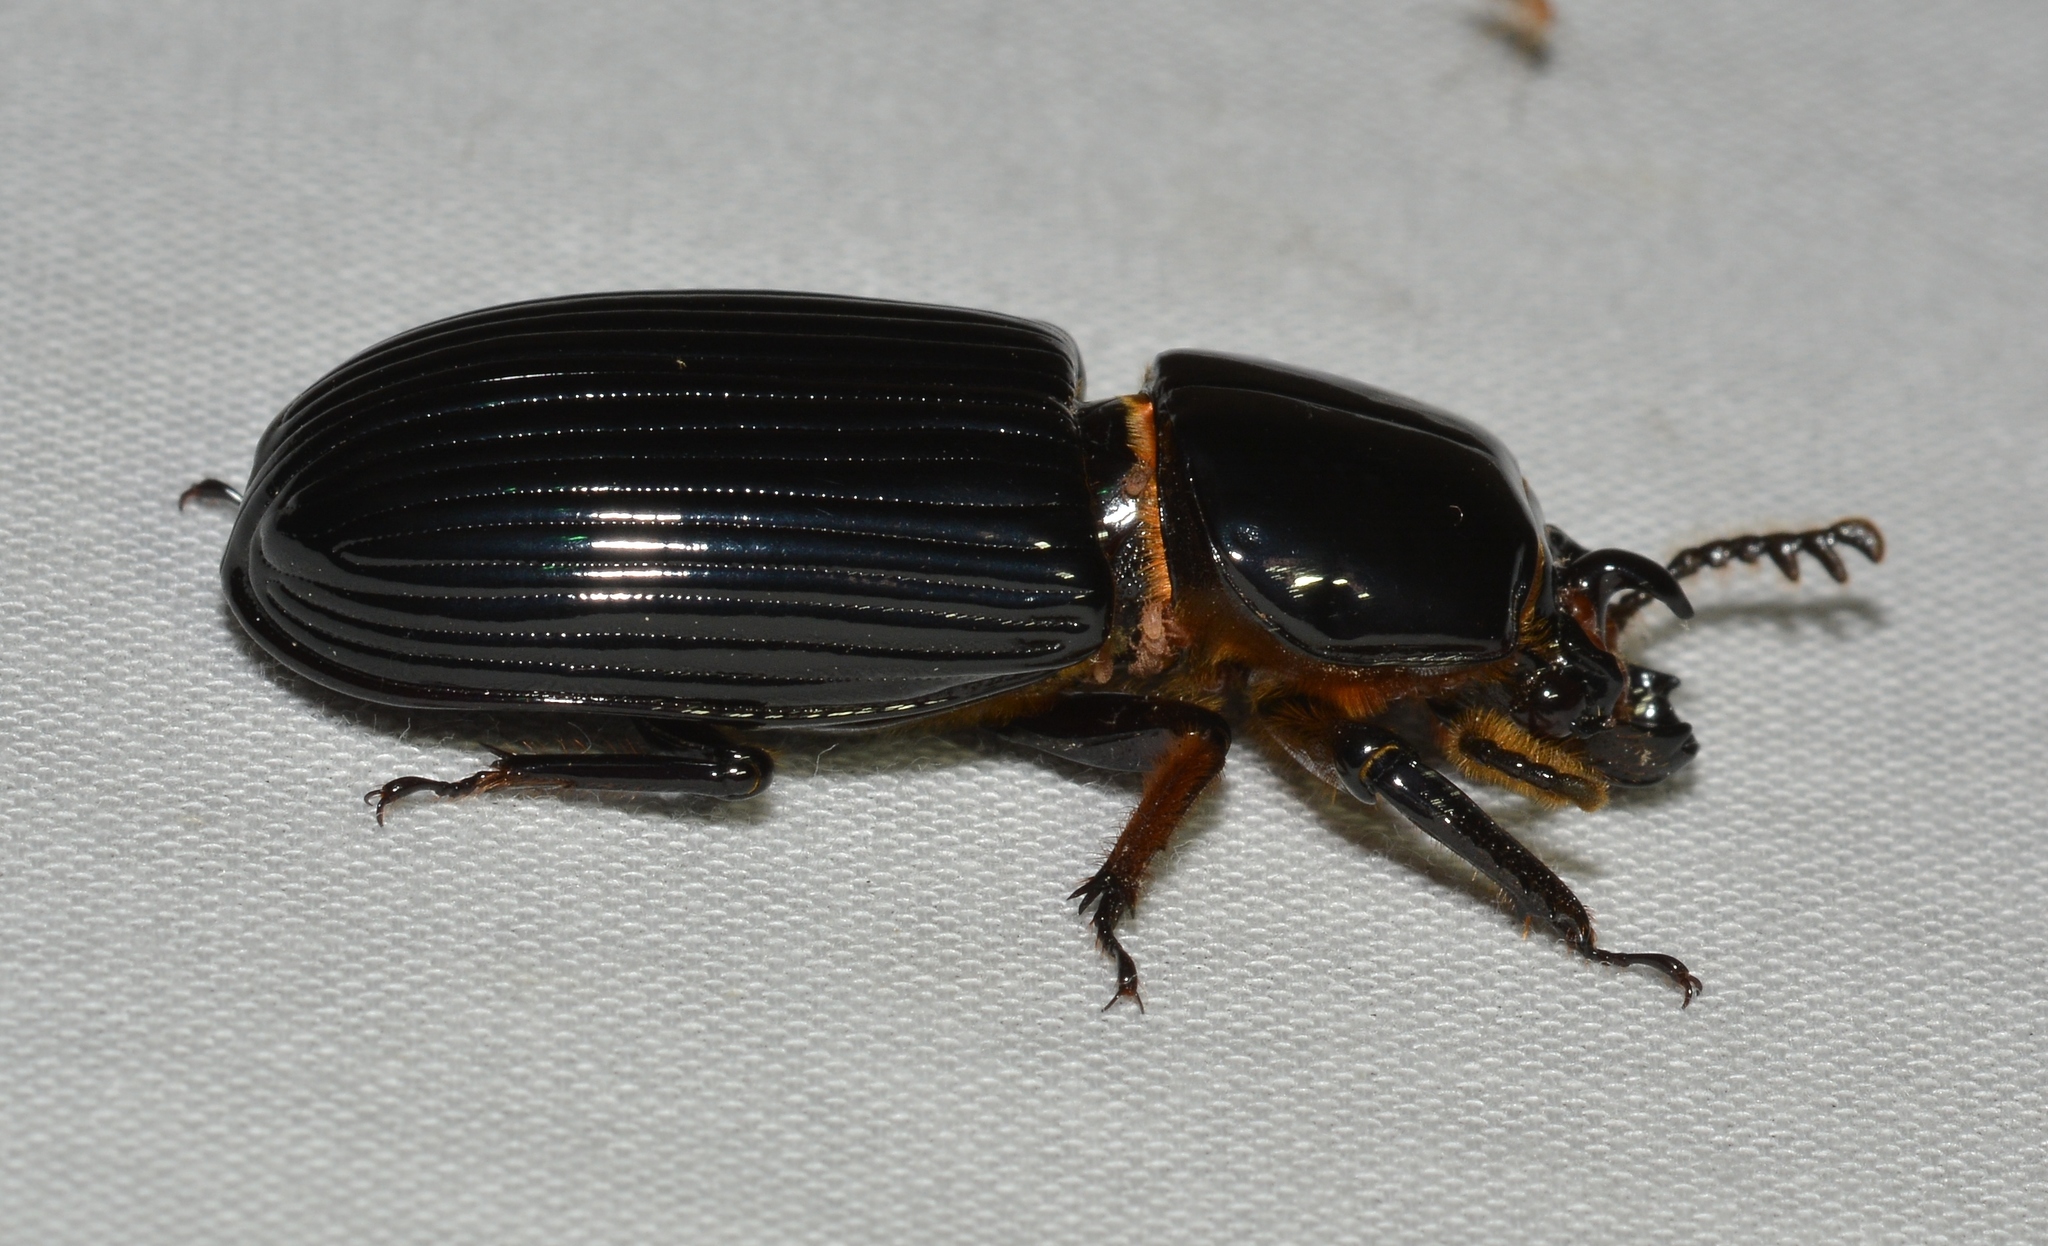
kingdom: Animalia
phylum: Arthropoda
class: Insecta
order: Coleoptera
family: Passalidae
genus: Odontotaenius
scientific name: Odontotaenius disjunctus
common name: Patent leather beetle
